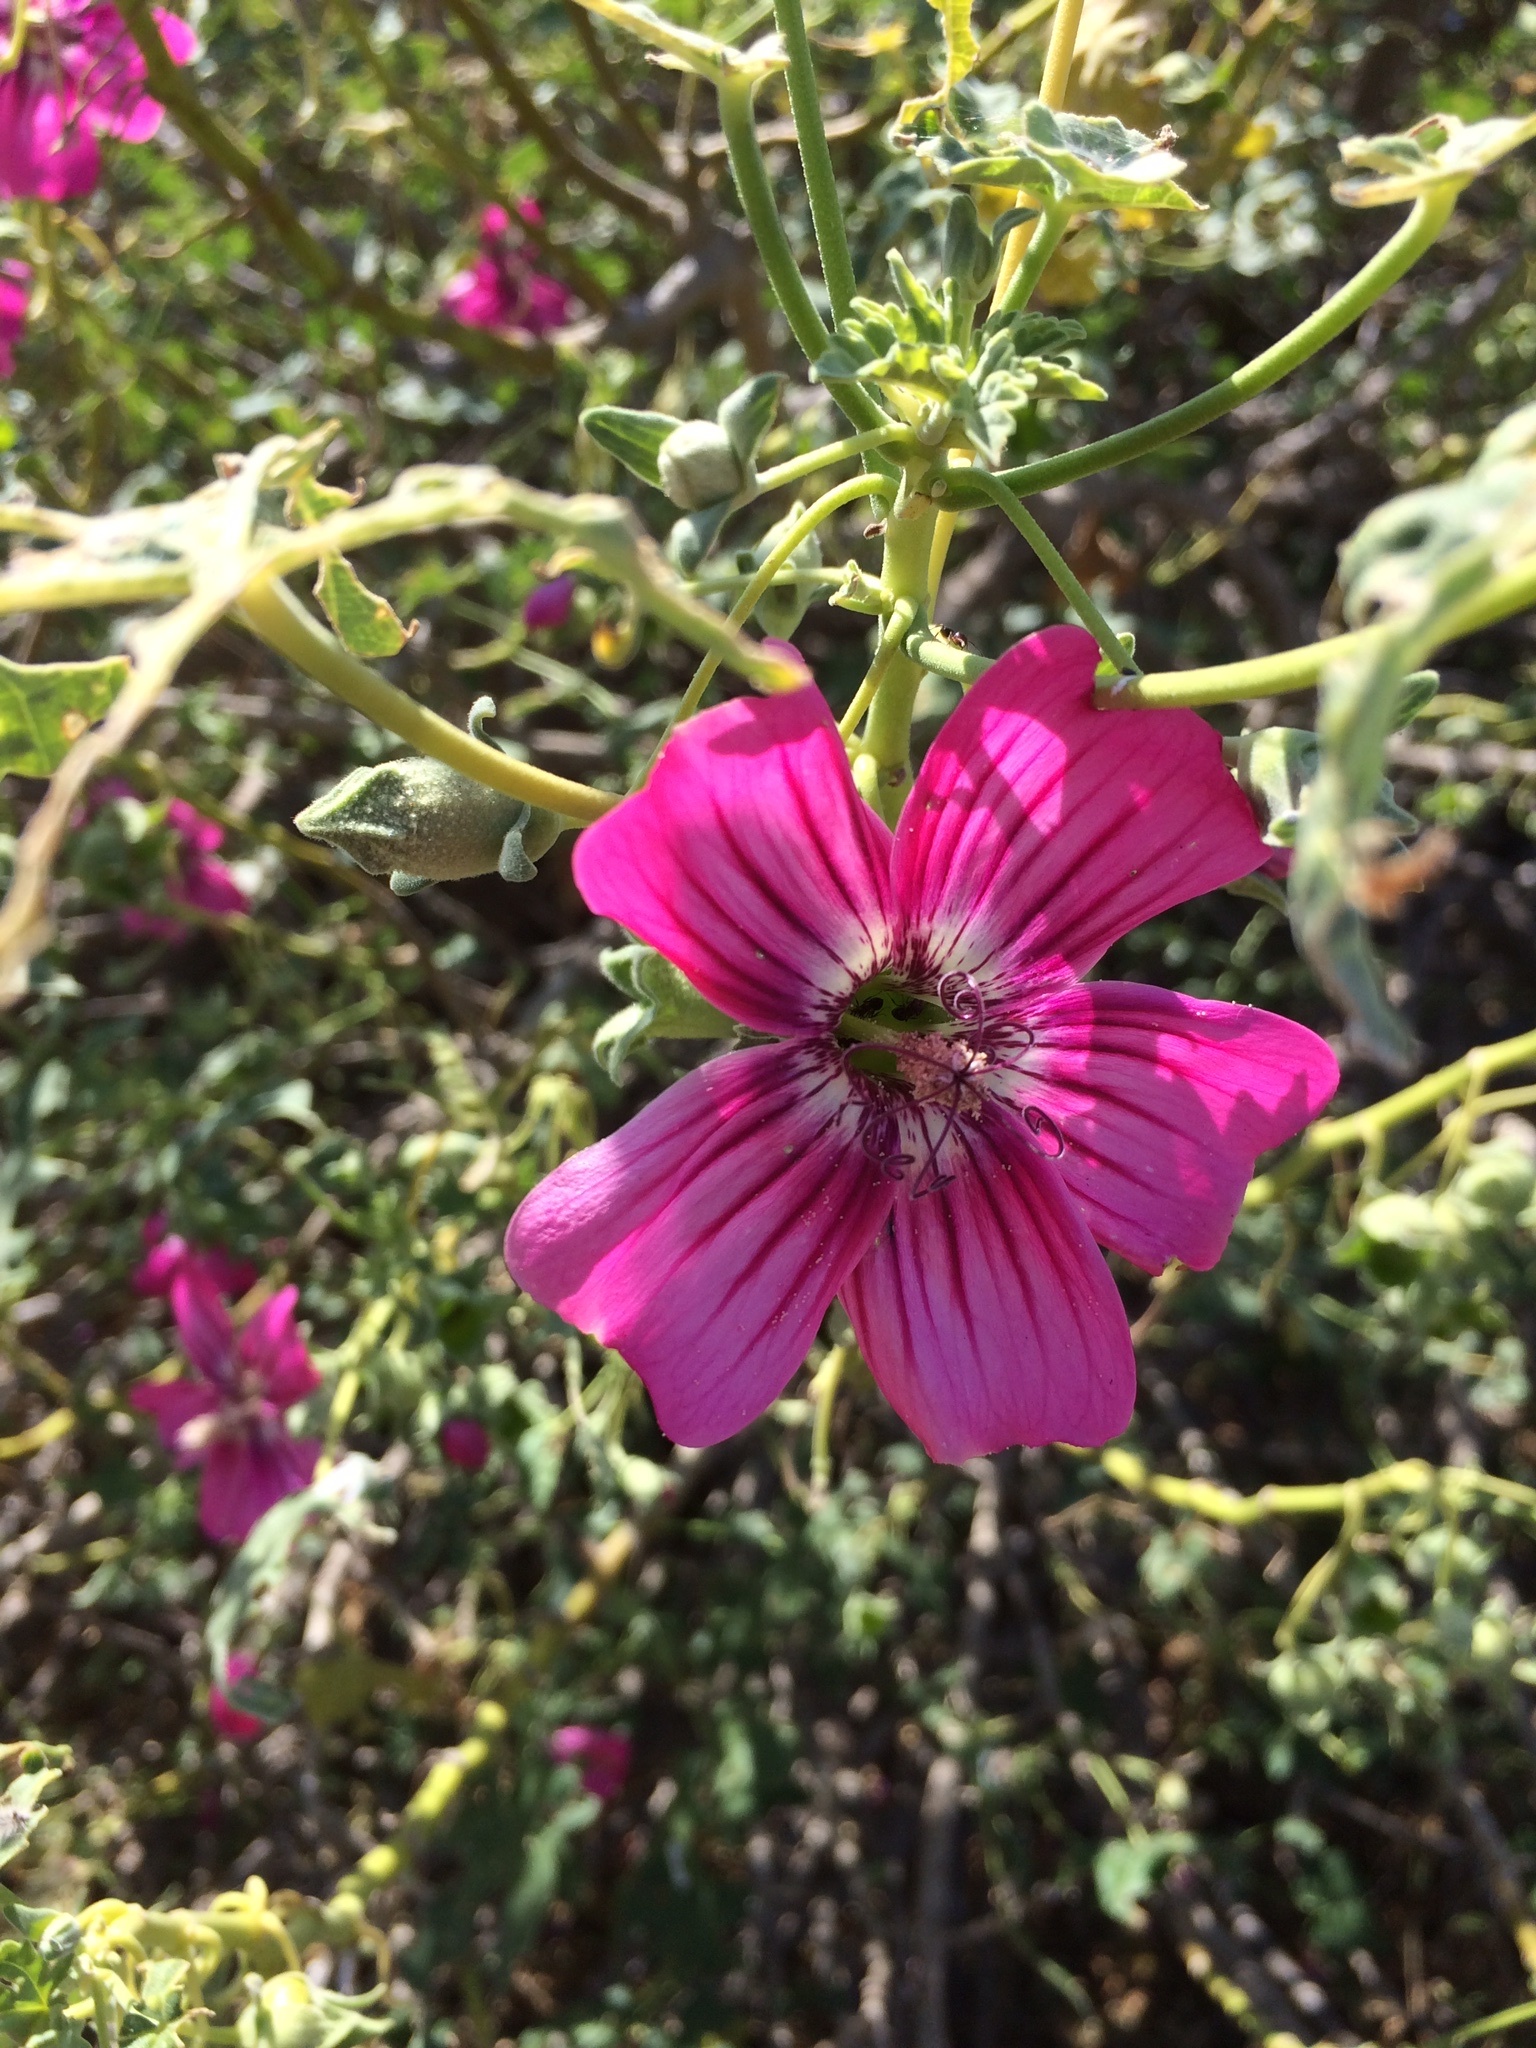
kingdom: Plantae
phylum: Tracheophyta
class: Magnoliopsida
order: Malvales
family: Malvaceae
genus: Malva
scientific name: Malva assurgentiflora
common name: Island mallow
